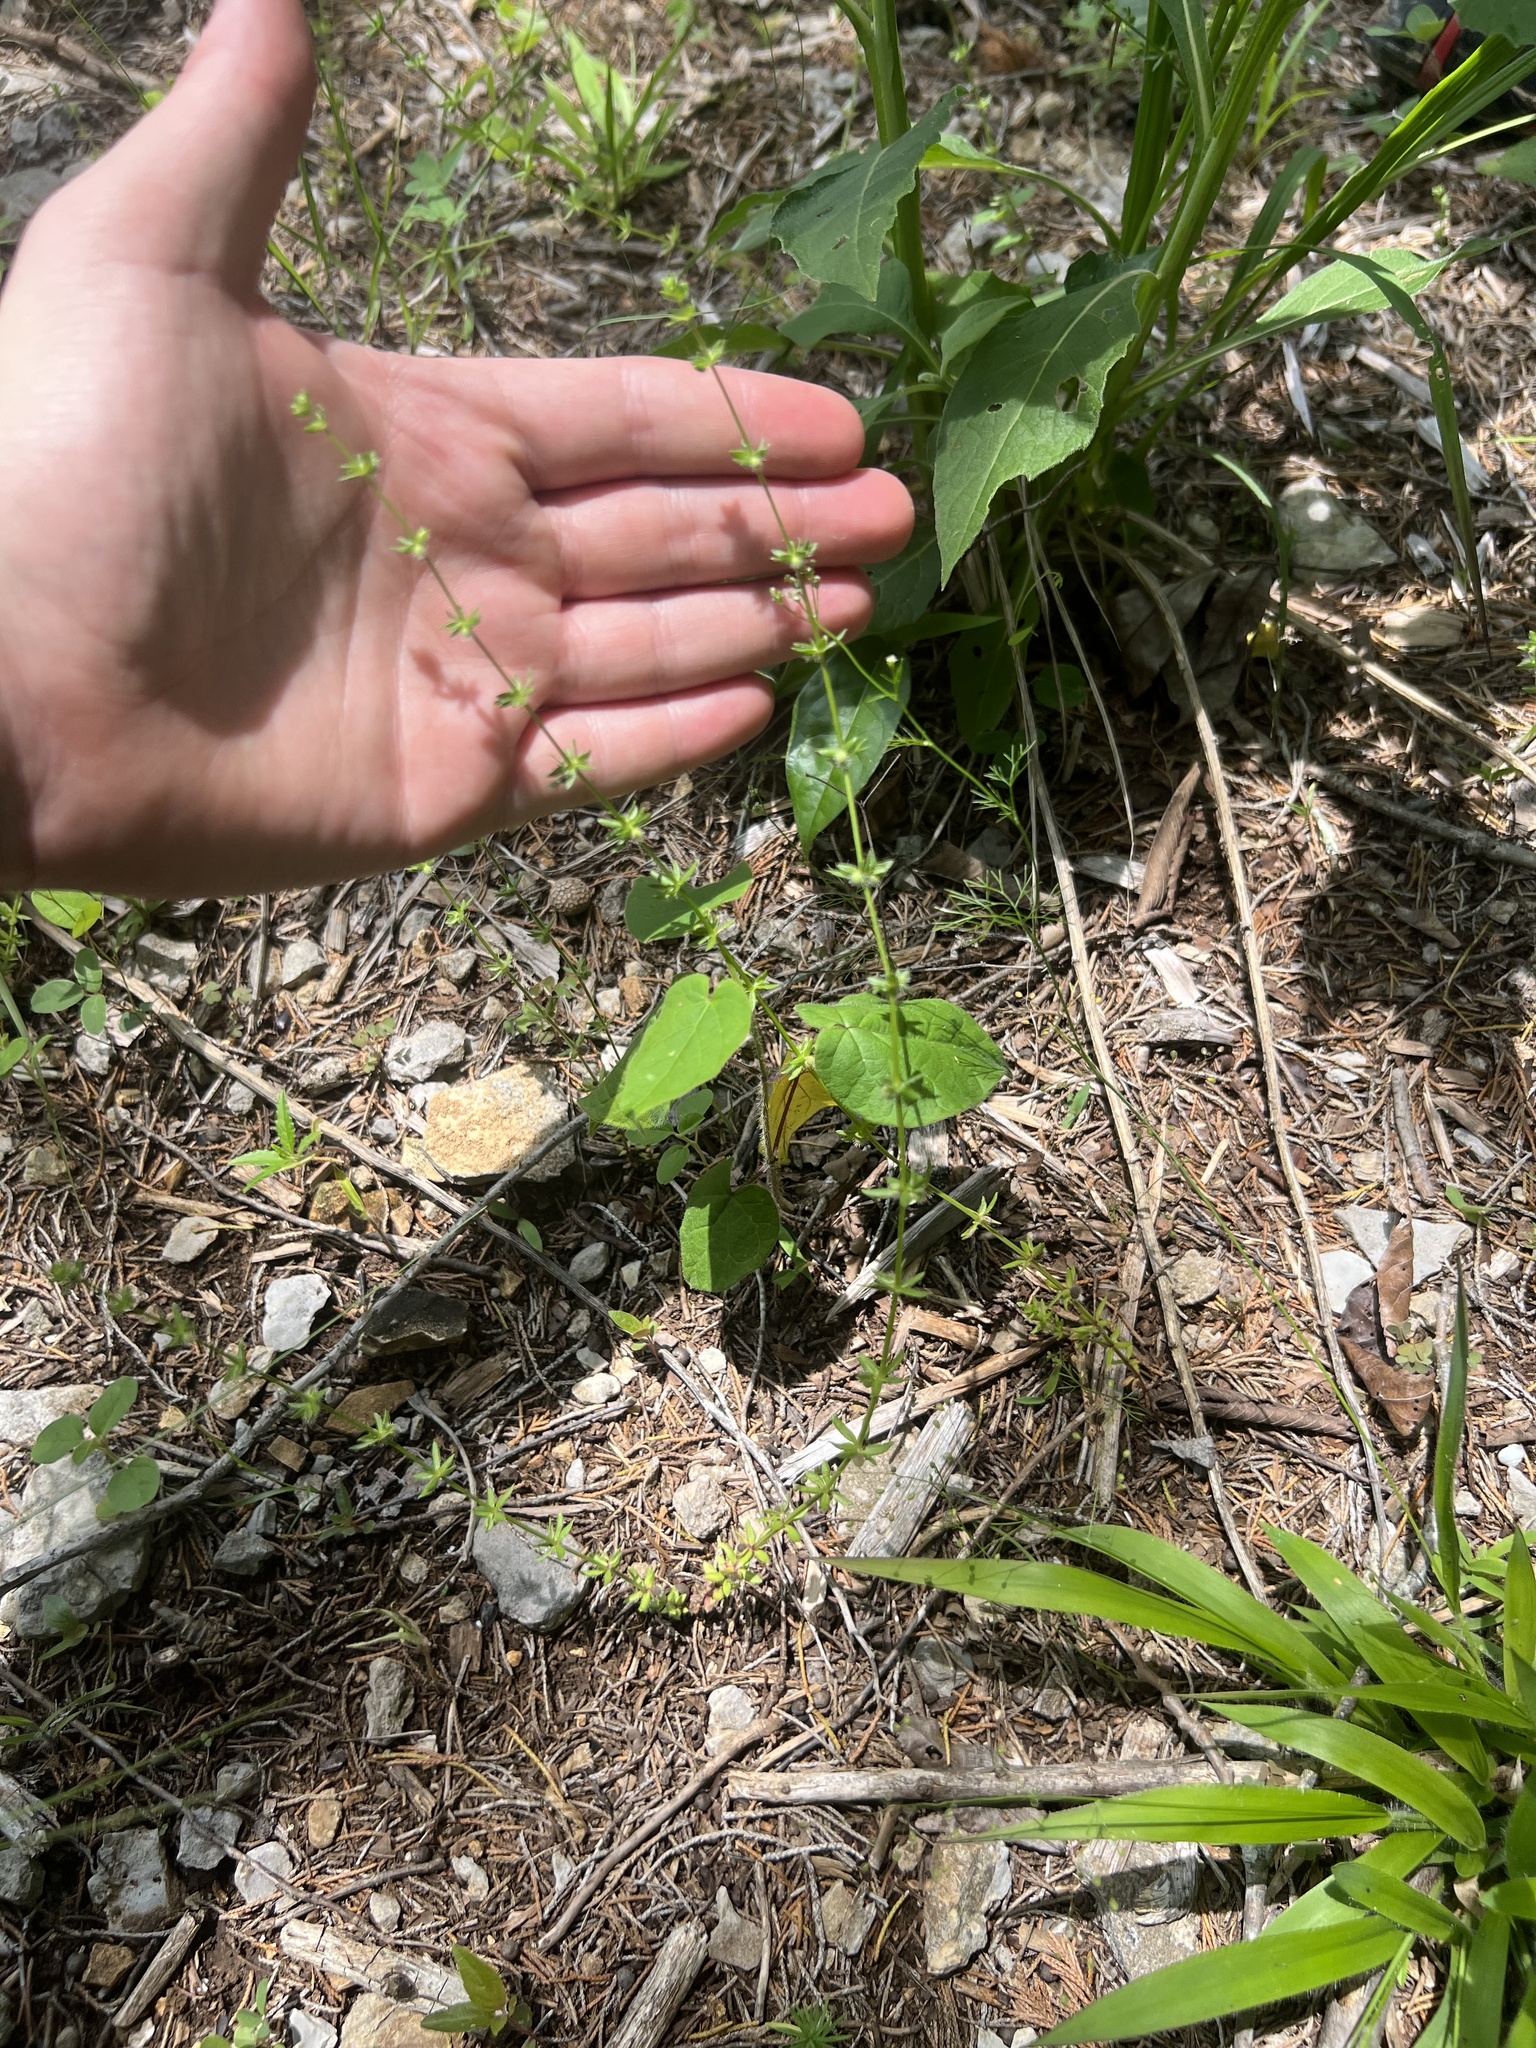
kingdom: Plantae
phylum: Tracheophyta
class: Magnoliopsida
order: Gentianales
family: Rubiaceae
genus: Galium
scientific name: Galium virgatum
